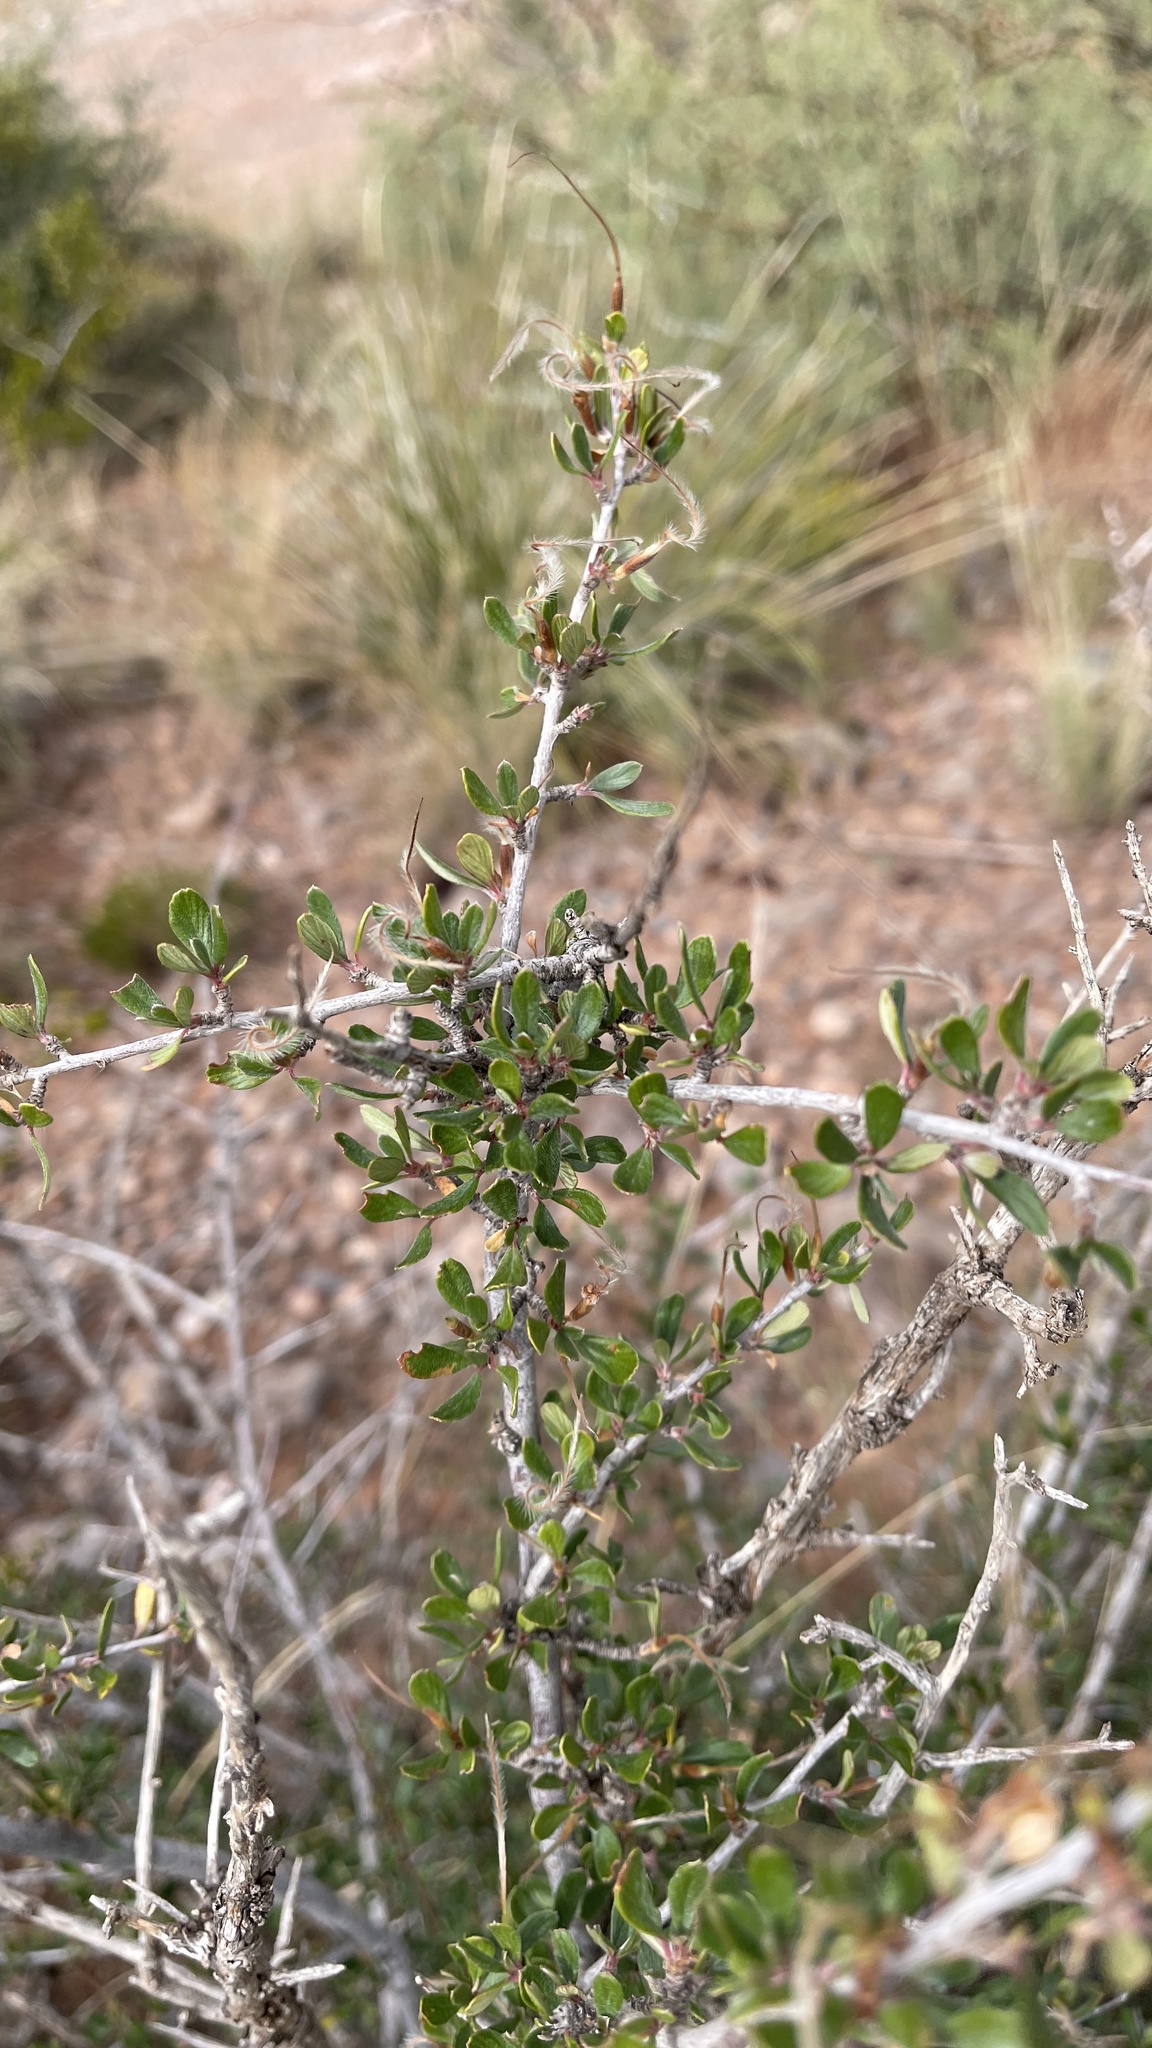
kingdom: Plantae
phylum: Tracheophyta
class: Magnoliopsida
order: Rosales
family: Rosaceae
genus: Cercocarpus
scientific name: Cercocarpus breviflorus
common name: Wright's mountain-mahogany
